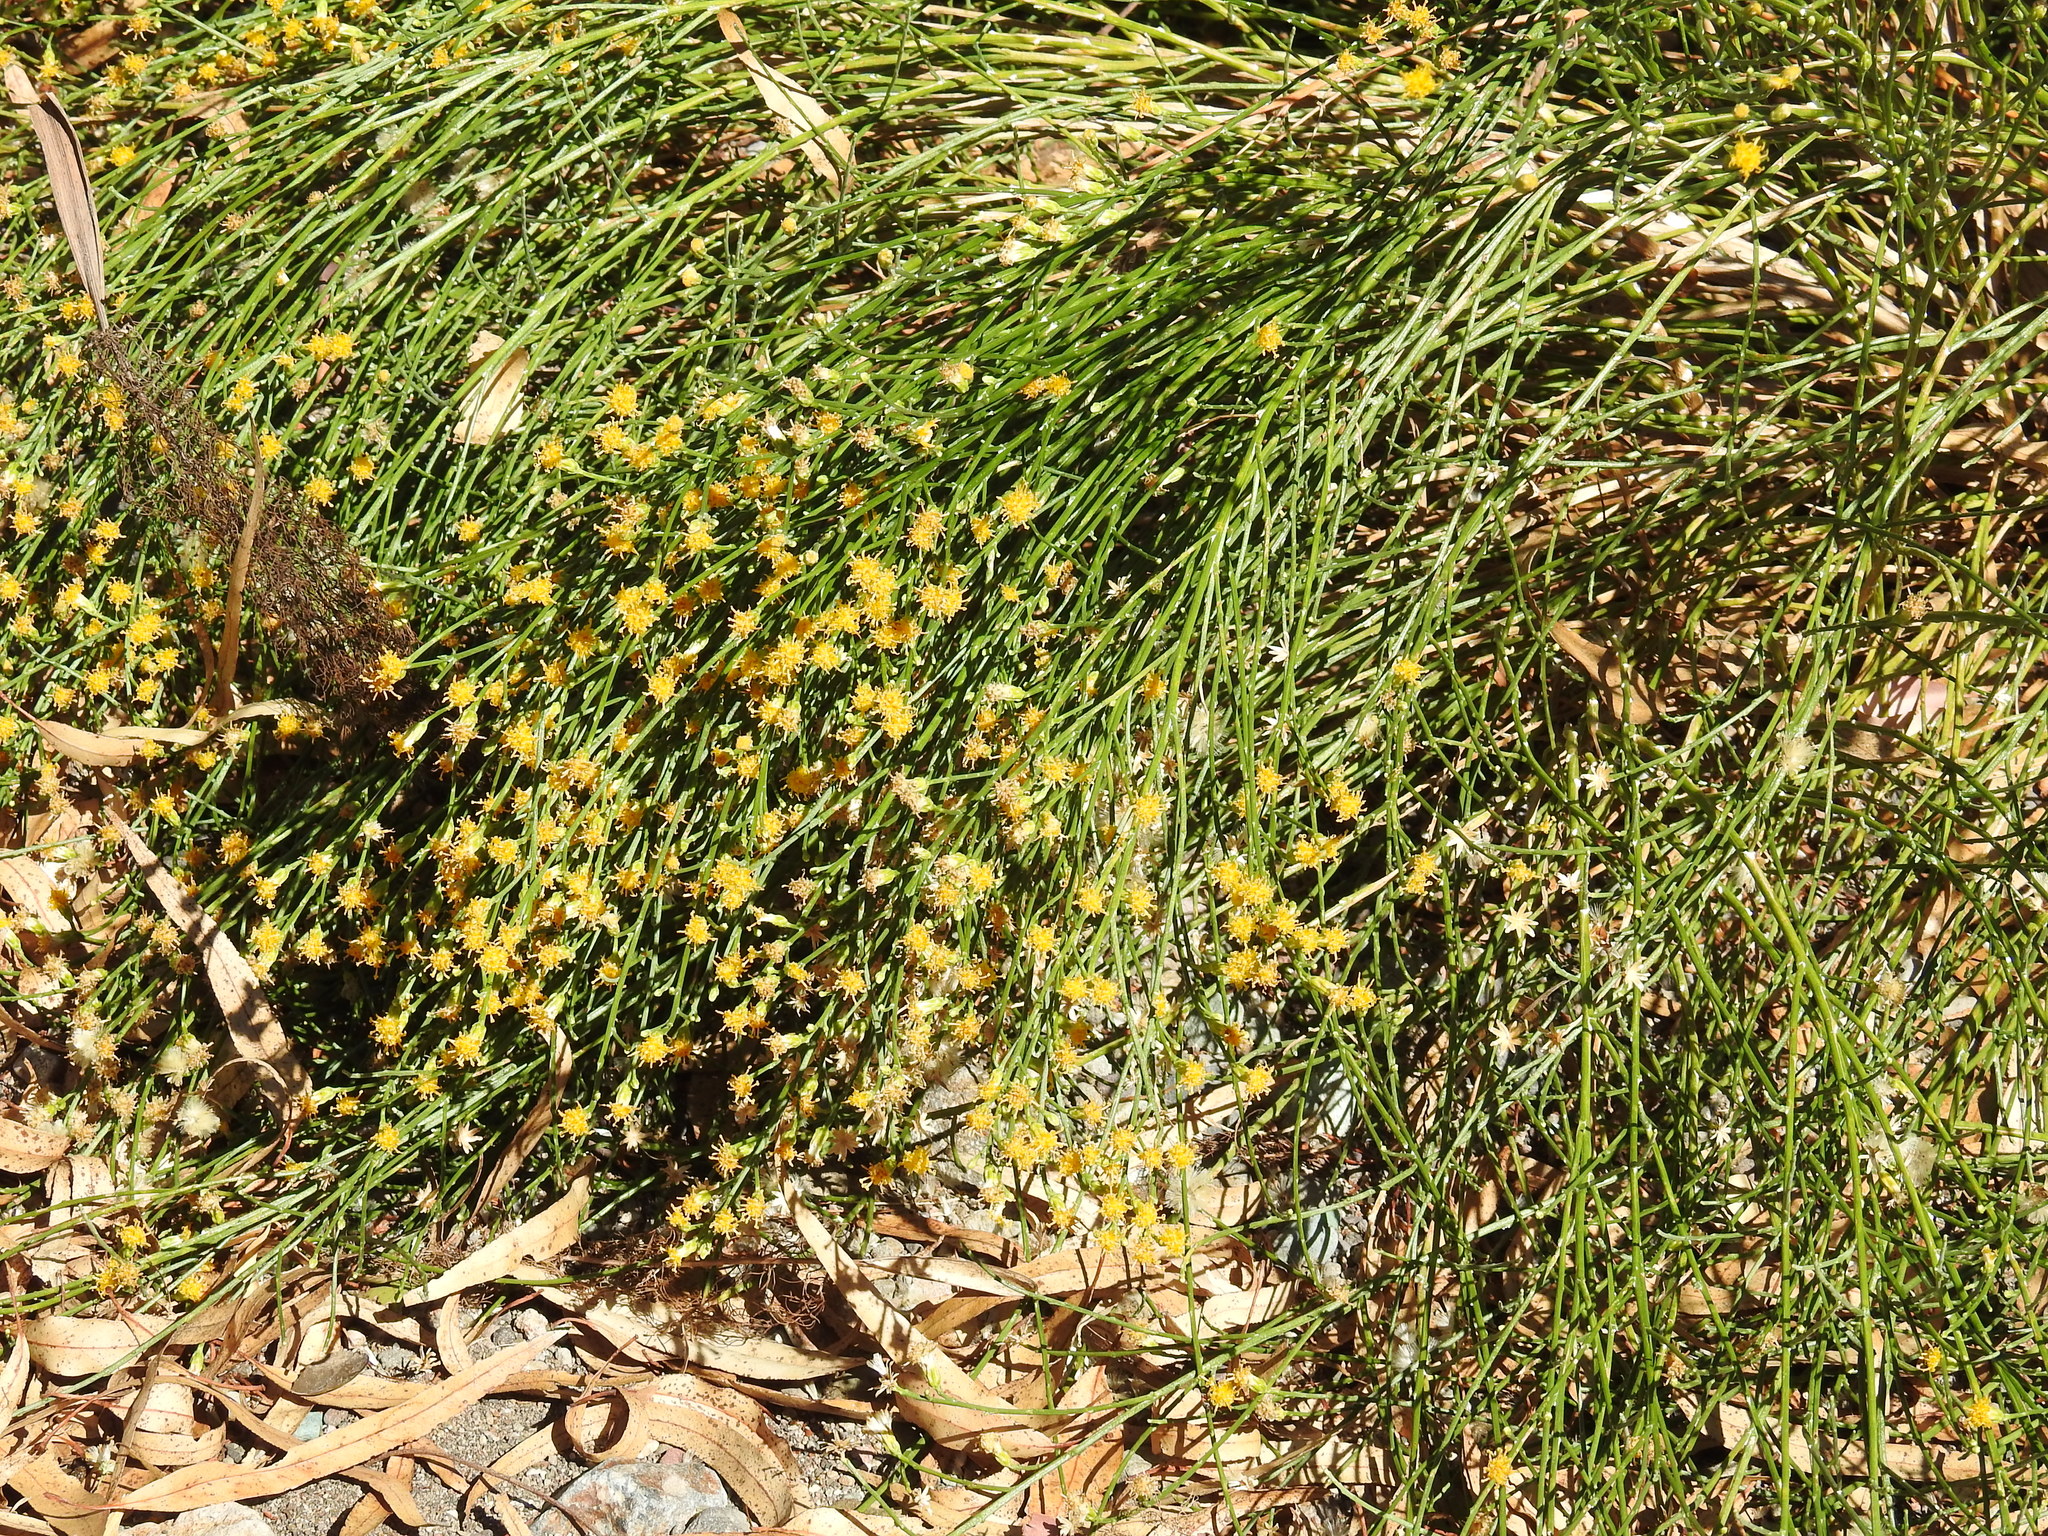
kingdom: Plantae
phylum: Tracheophyta
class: Magnoliopsida
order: Asterales
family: Asteraceae
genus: Lepidospartum
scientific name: Lepidospartum squamatum
